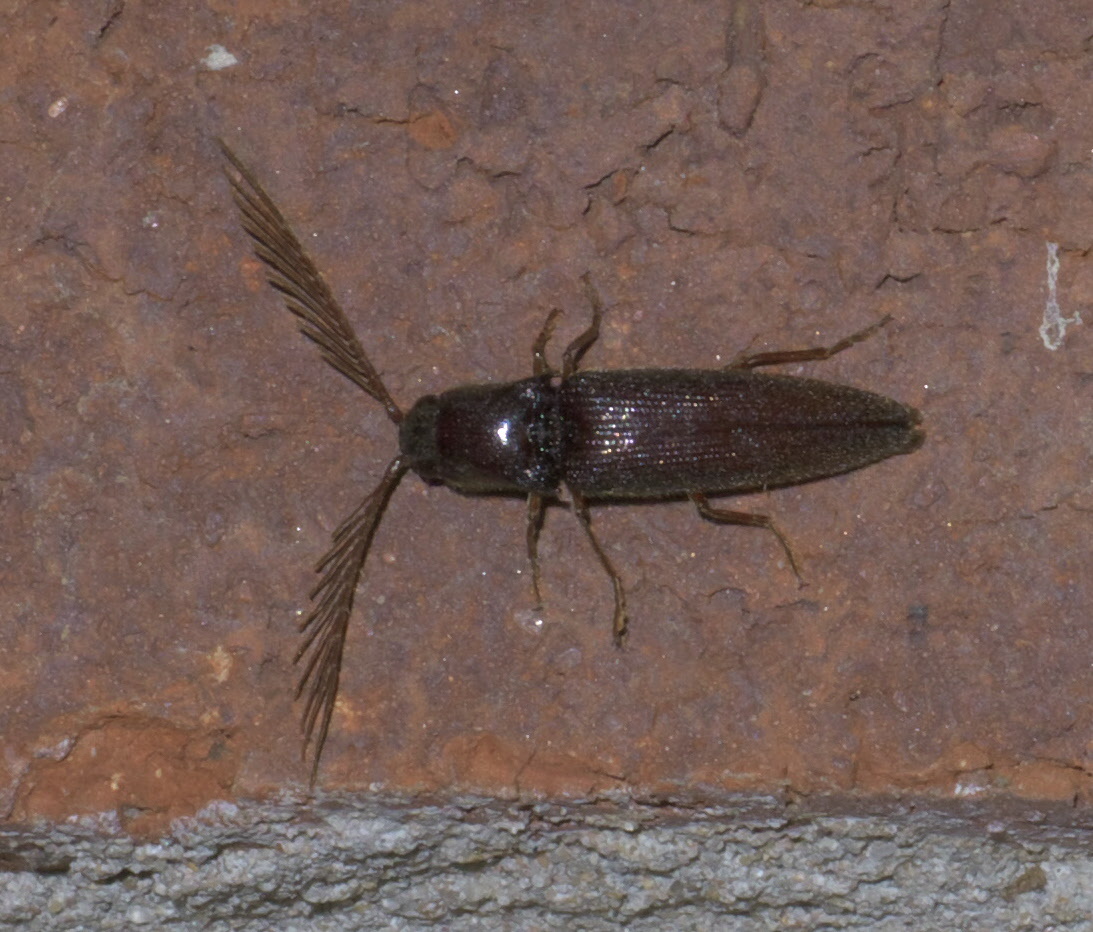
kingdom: Animalia
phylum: Arthropoda
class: Insecta
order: Coleoptera
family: Elateridae
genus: Dicrepidius
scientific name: Dicrepidius palmatus
